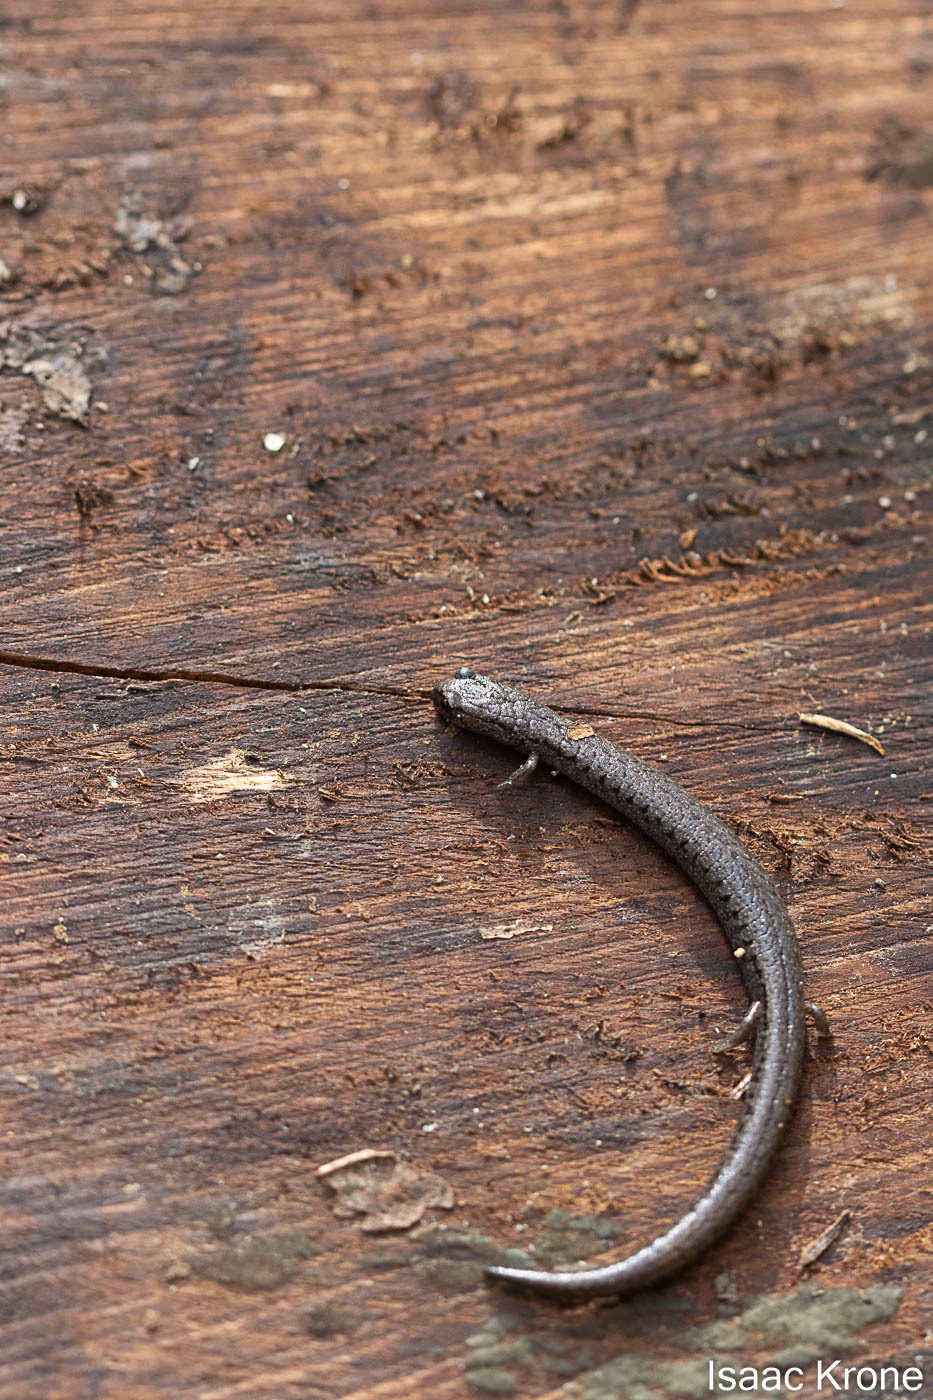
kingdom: Animalia
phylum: Chordata
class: Amphibia
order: Caudata
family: Plethodontidae
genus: Batrachoseps
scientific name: Batrachoseps attenuatus
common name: California slender salamander
